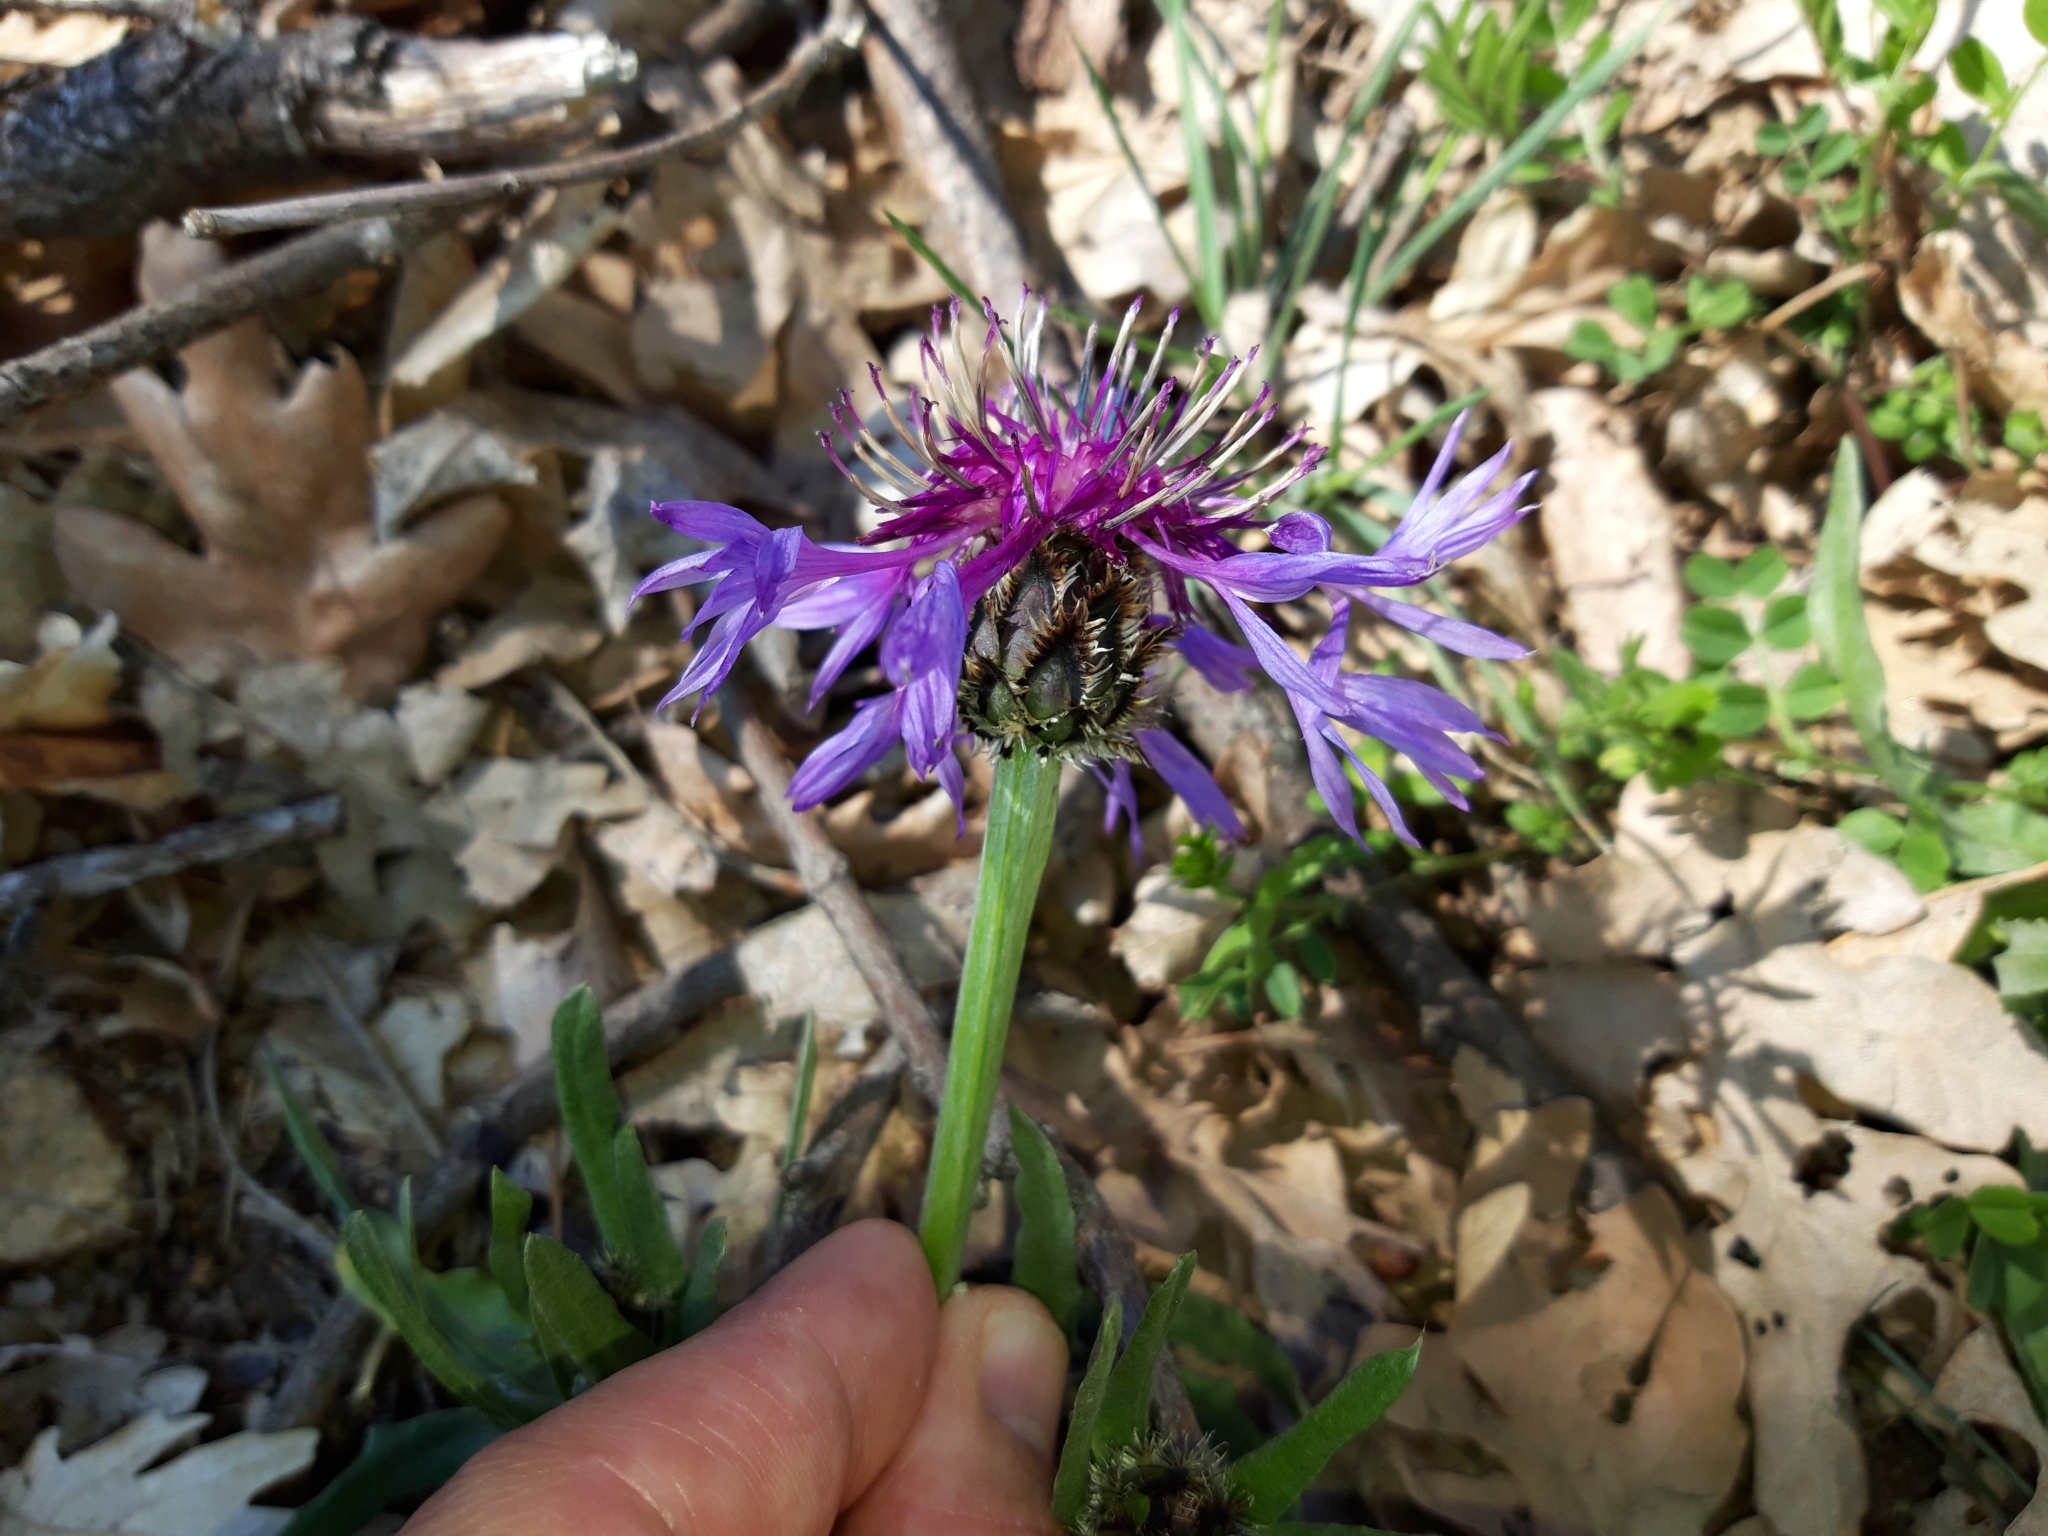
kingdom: Plantae
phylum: Tracheophyta
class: Magnoliopsida
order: Asterales
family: Asteraceae
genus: Centaurea
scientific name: Centaurea graminifolia
